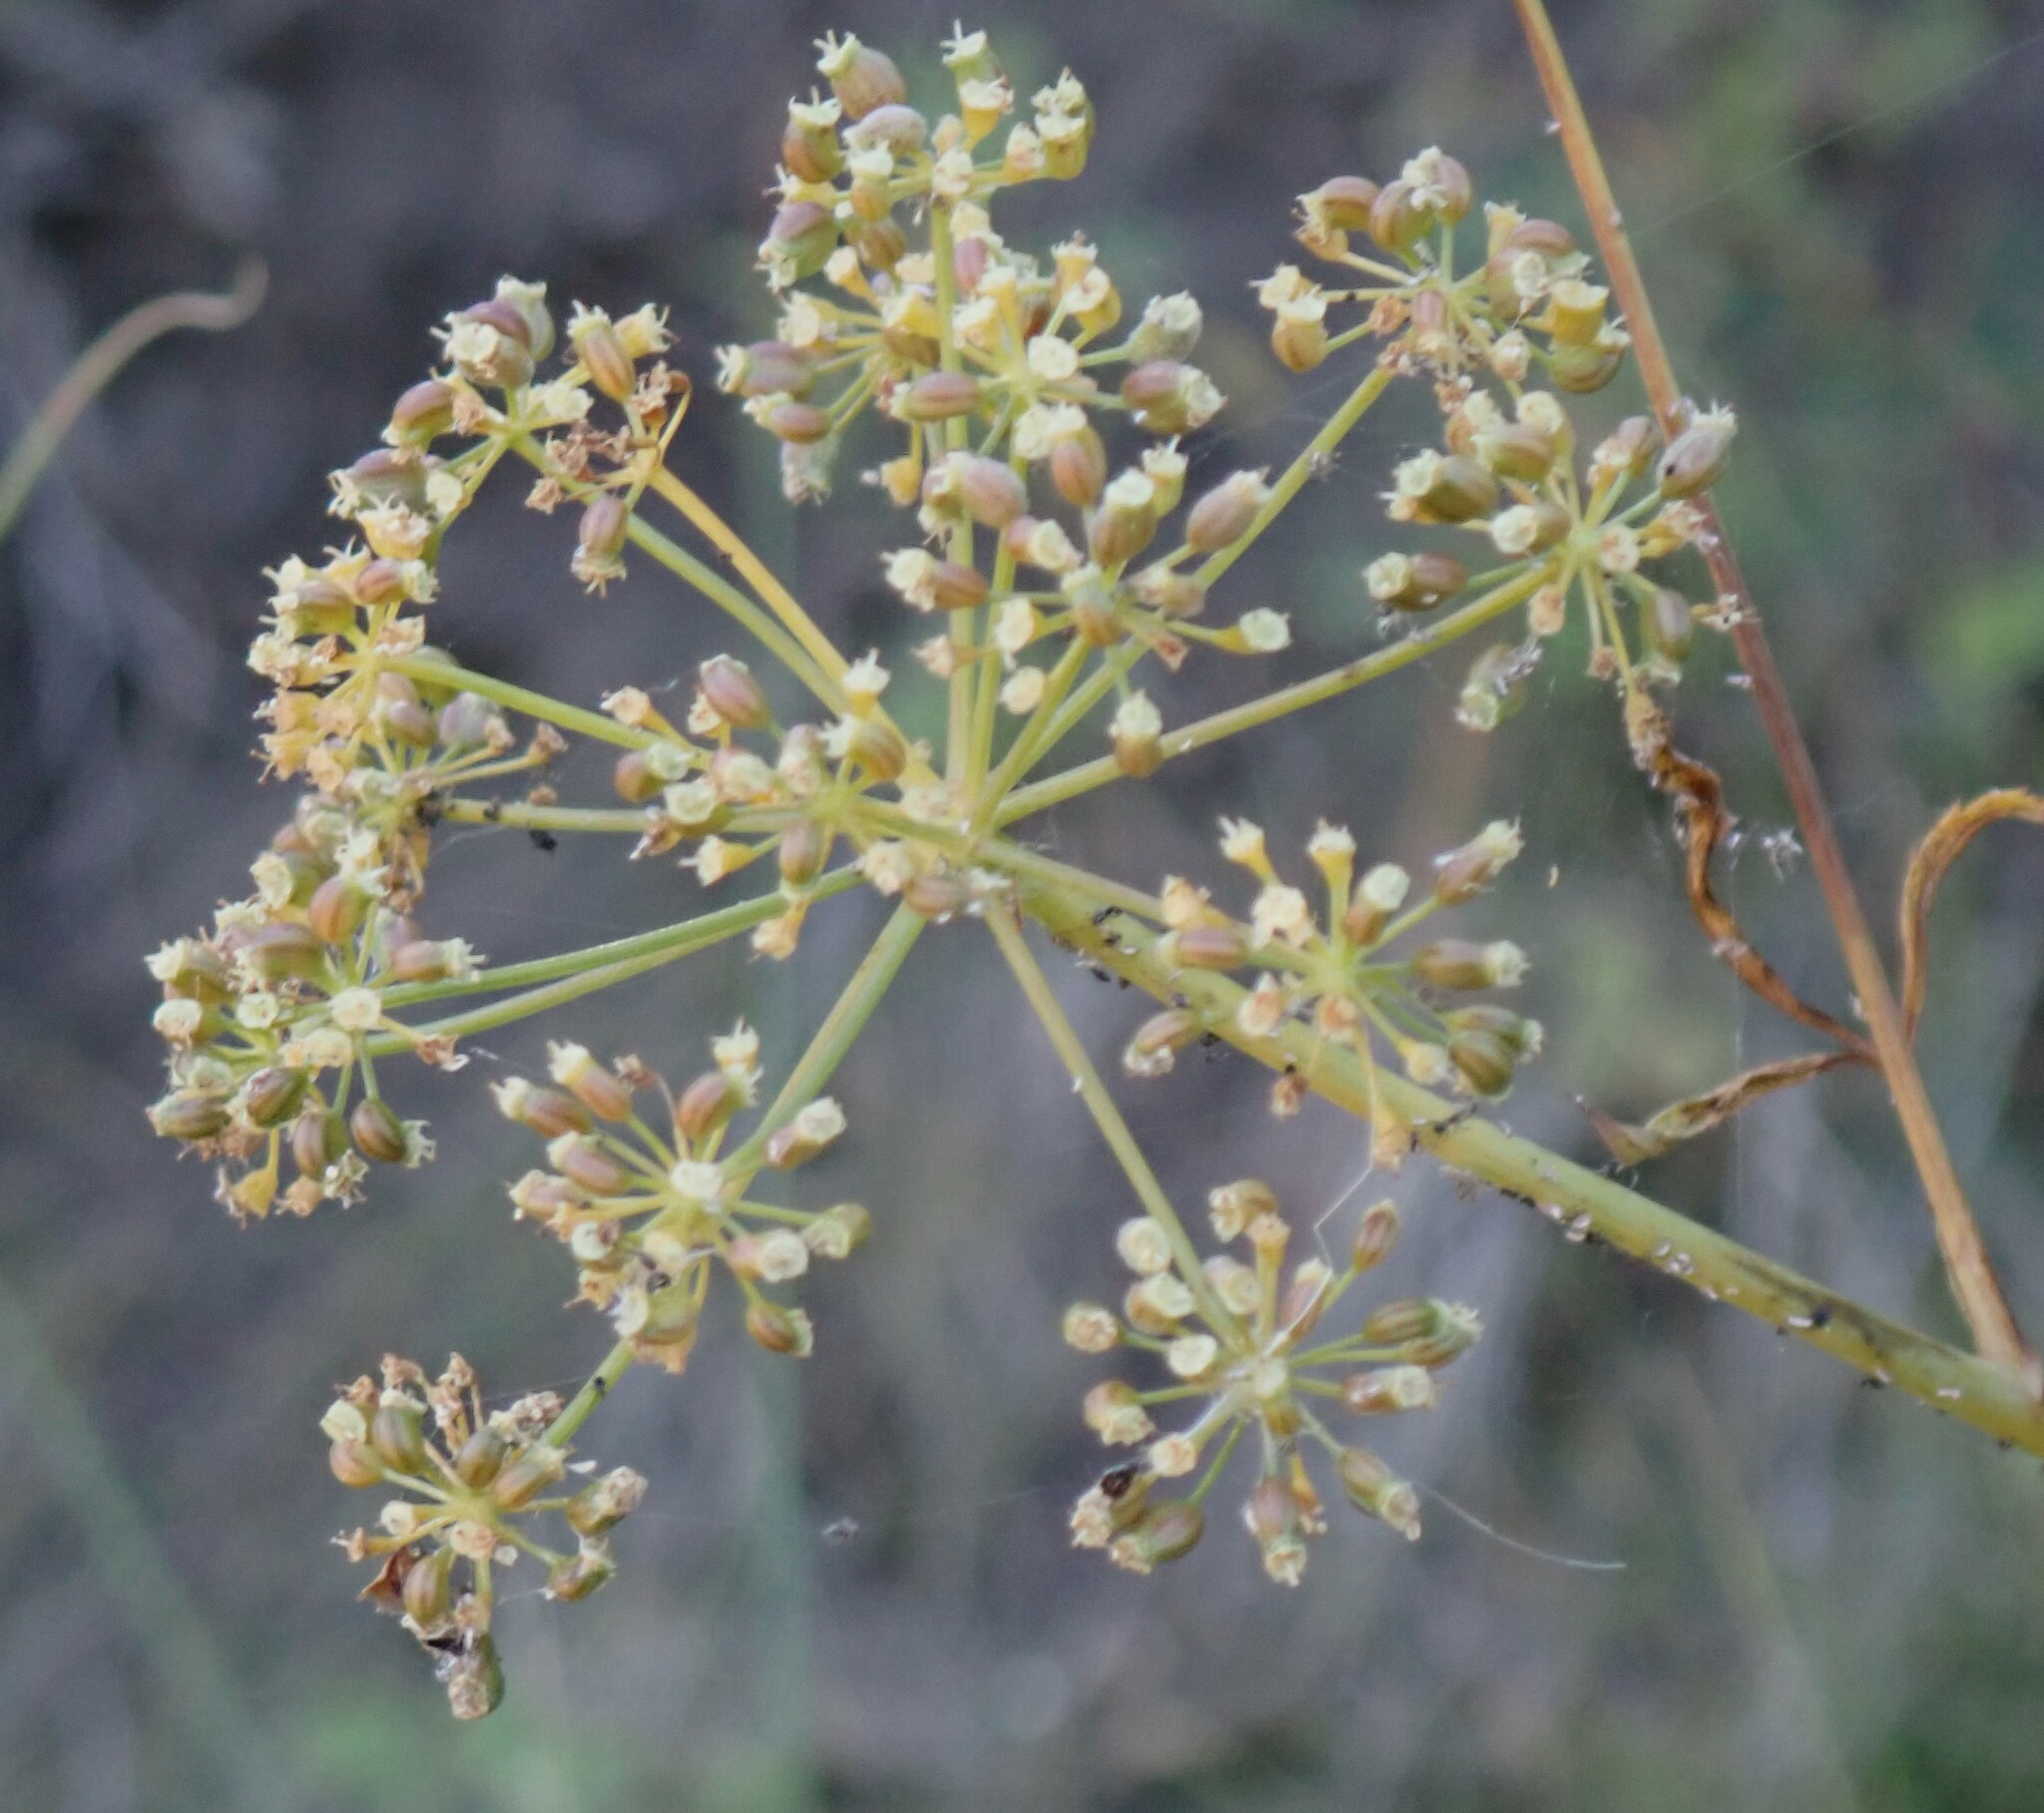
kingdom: Plantae
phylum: Tracheophyta
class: Magnoliopsida
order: Apiales
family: Apiaceae
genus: Cicuta
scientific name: Cicuta maculata
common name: Spotted cowbane
